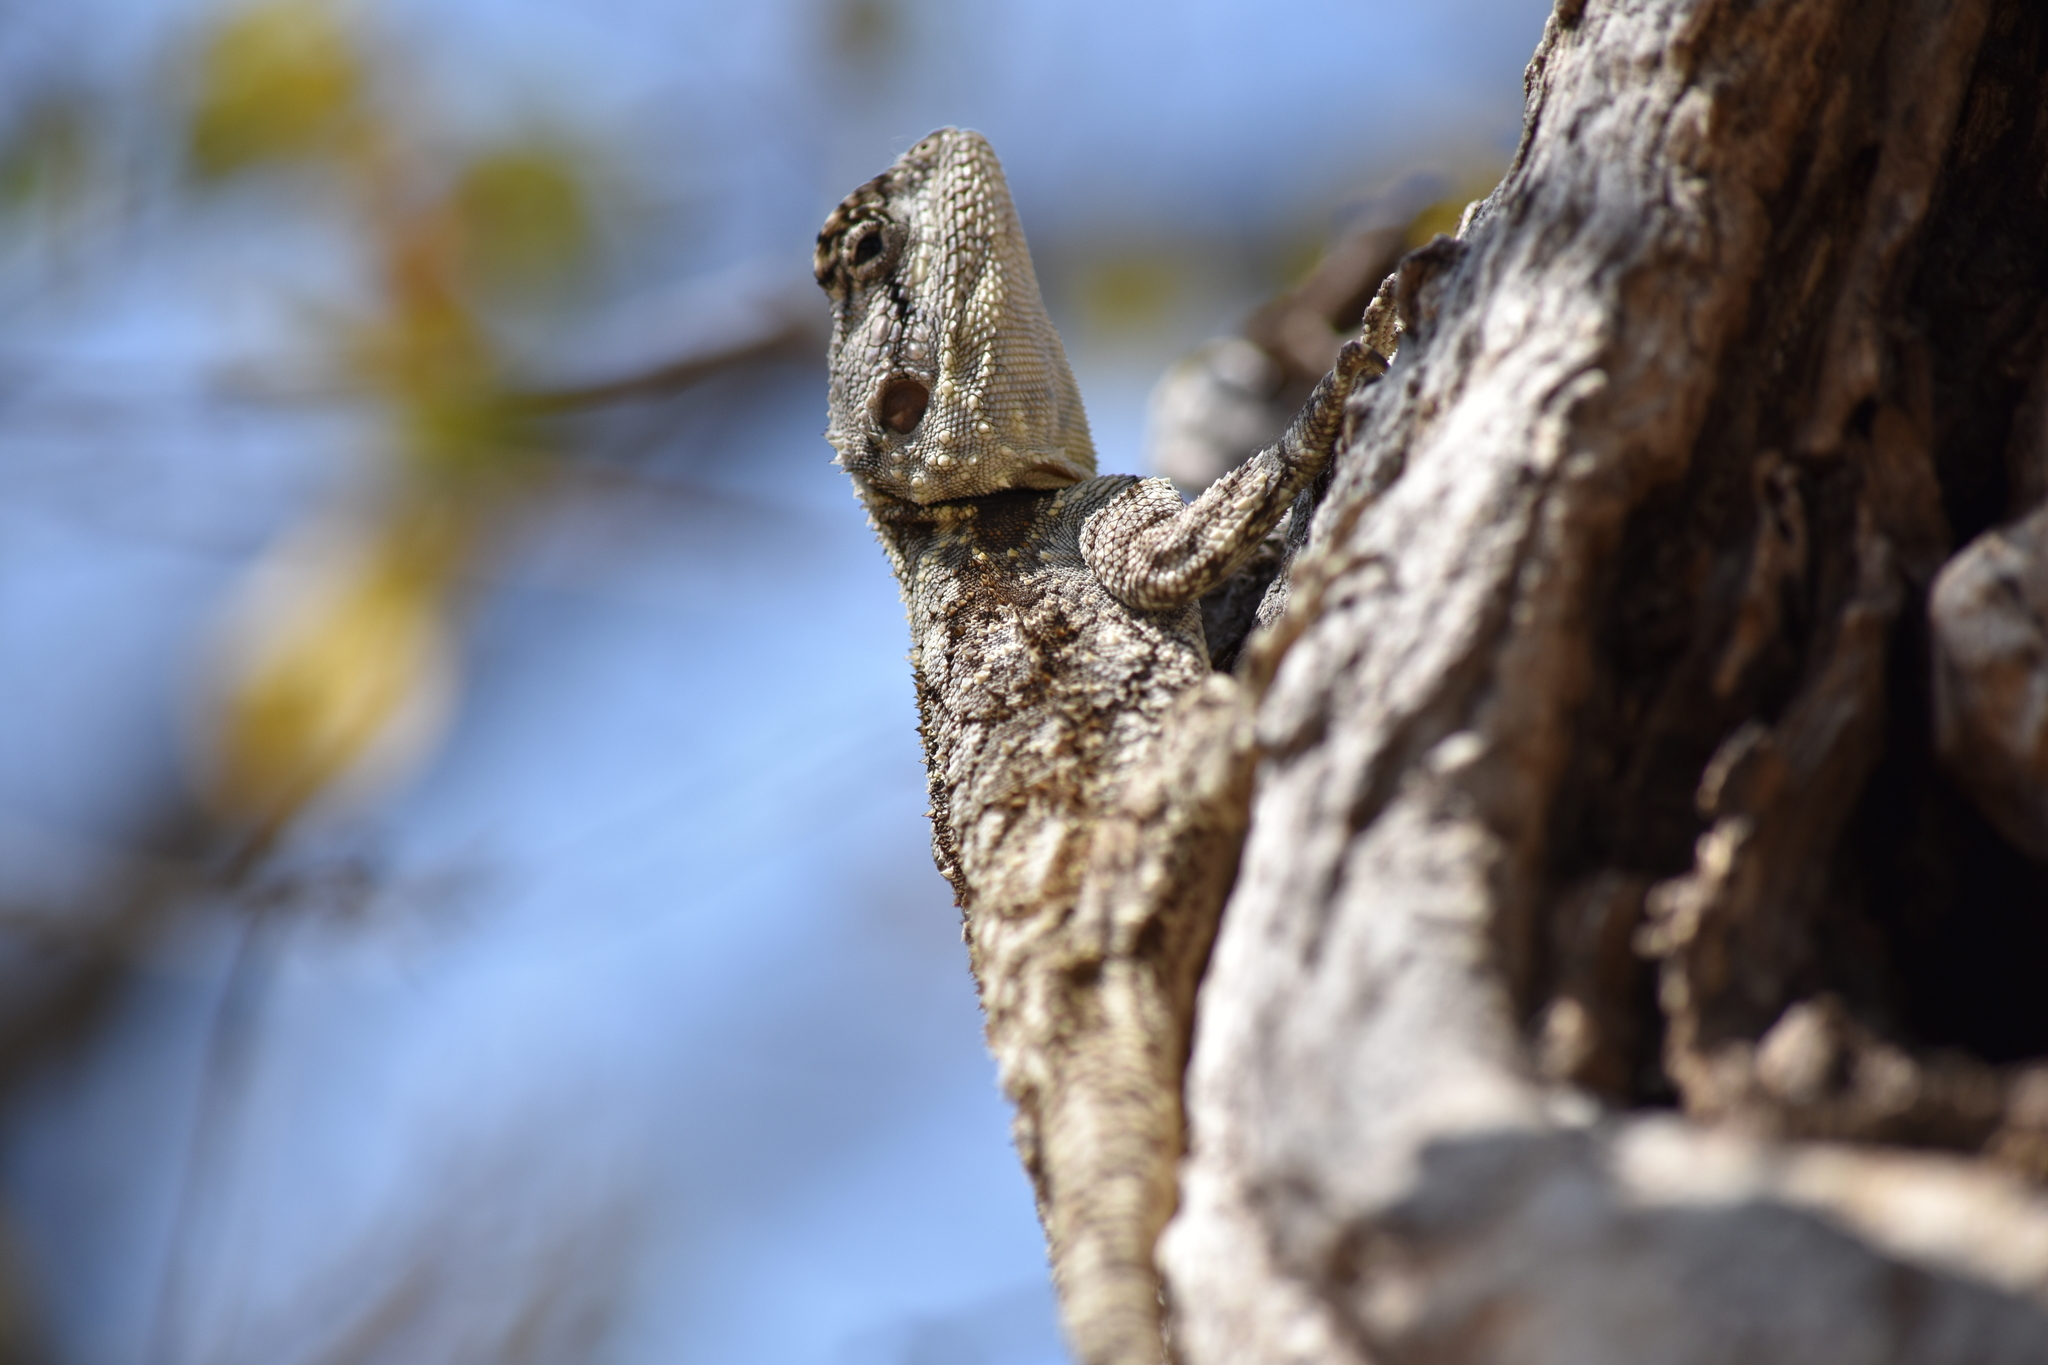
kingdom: Animalia
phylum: Chordata
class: Squamata
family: Agamidae
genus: Acanthocercus
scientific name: Acanthocercus atricollis
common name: Southern tree agama
